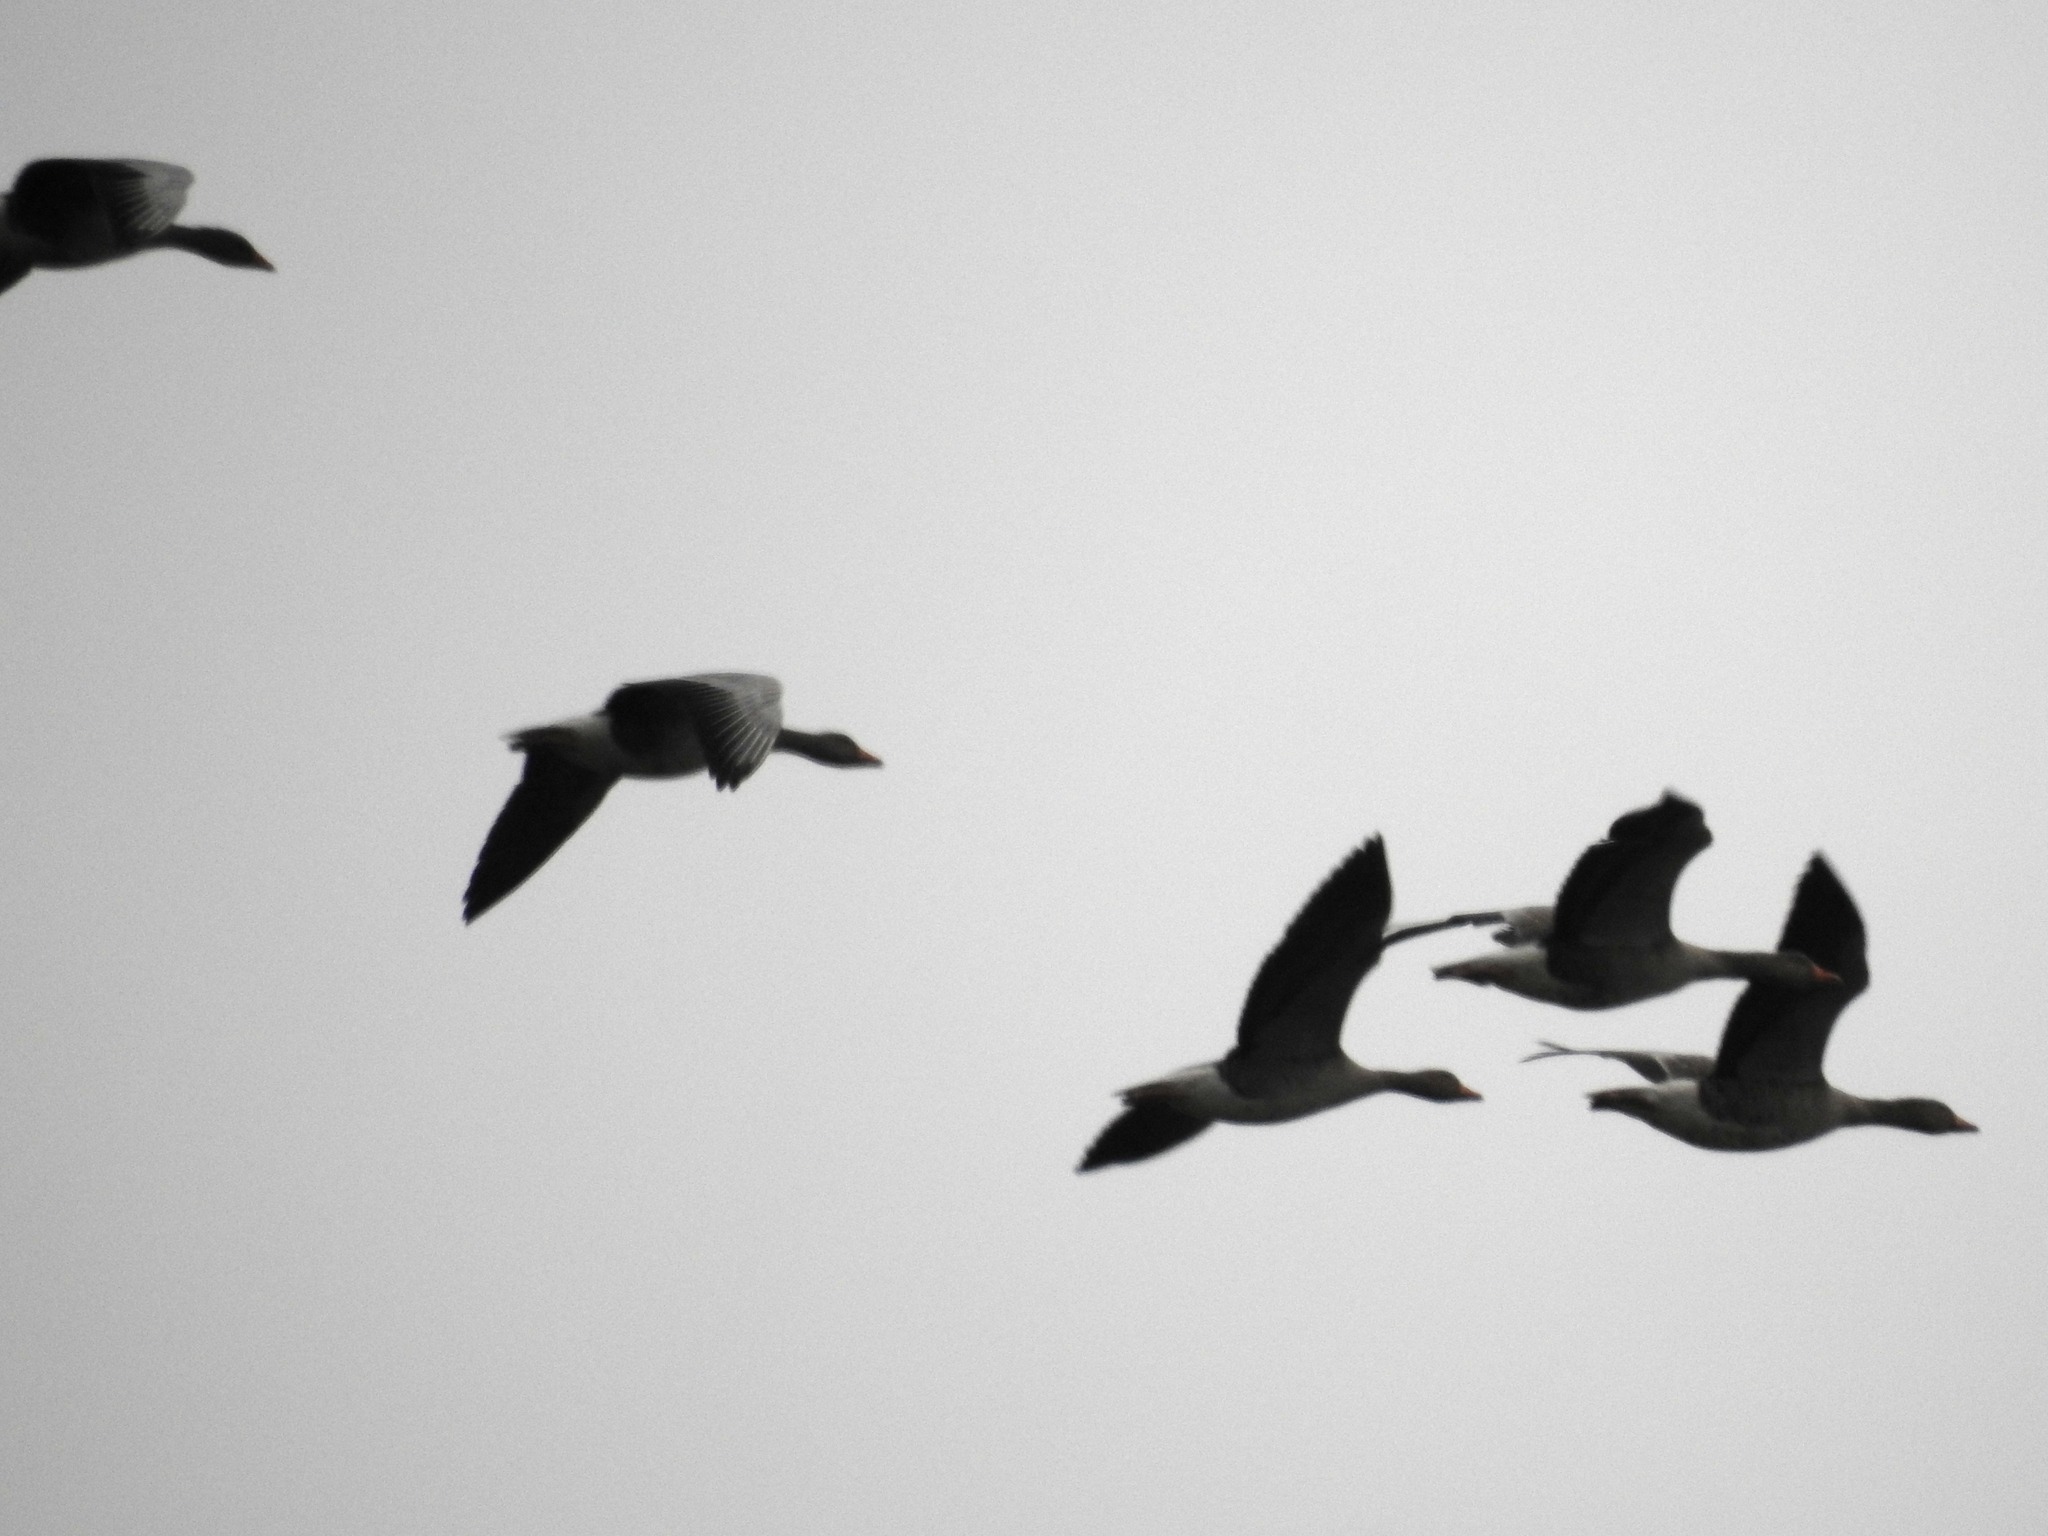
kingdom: Animalia
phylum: Chordata
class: Aves
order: Anseriformes
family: Anatidae
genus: Anser
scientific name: Anser anser
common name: Greylag goose
